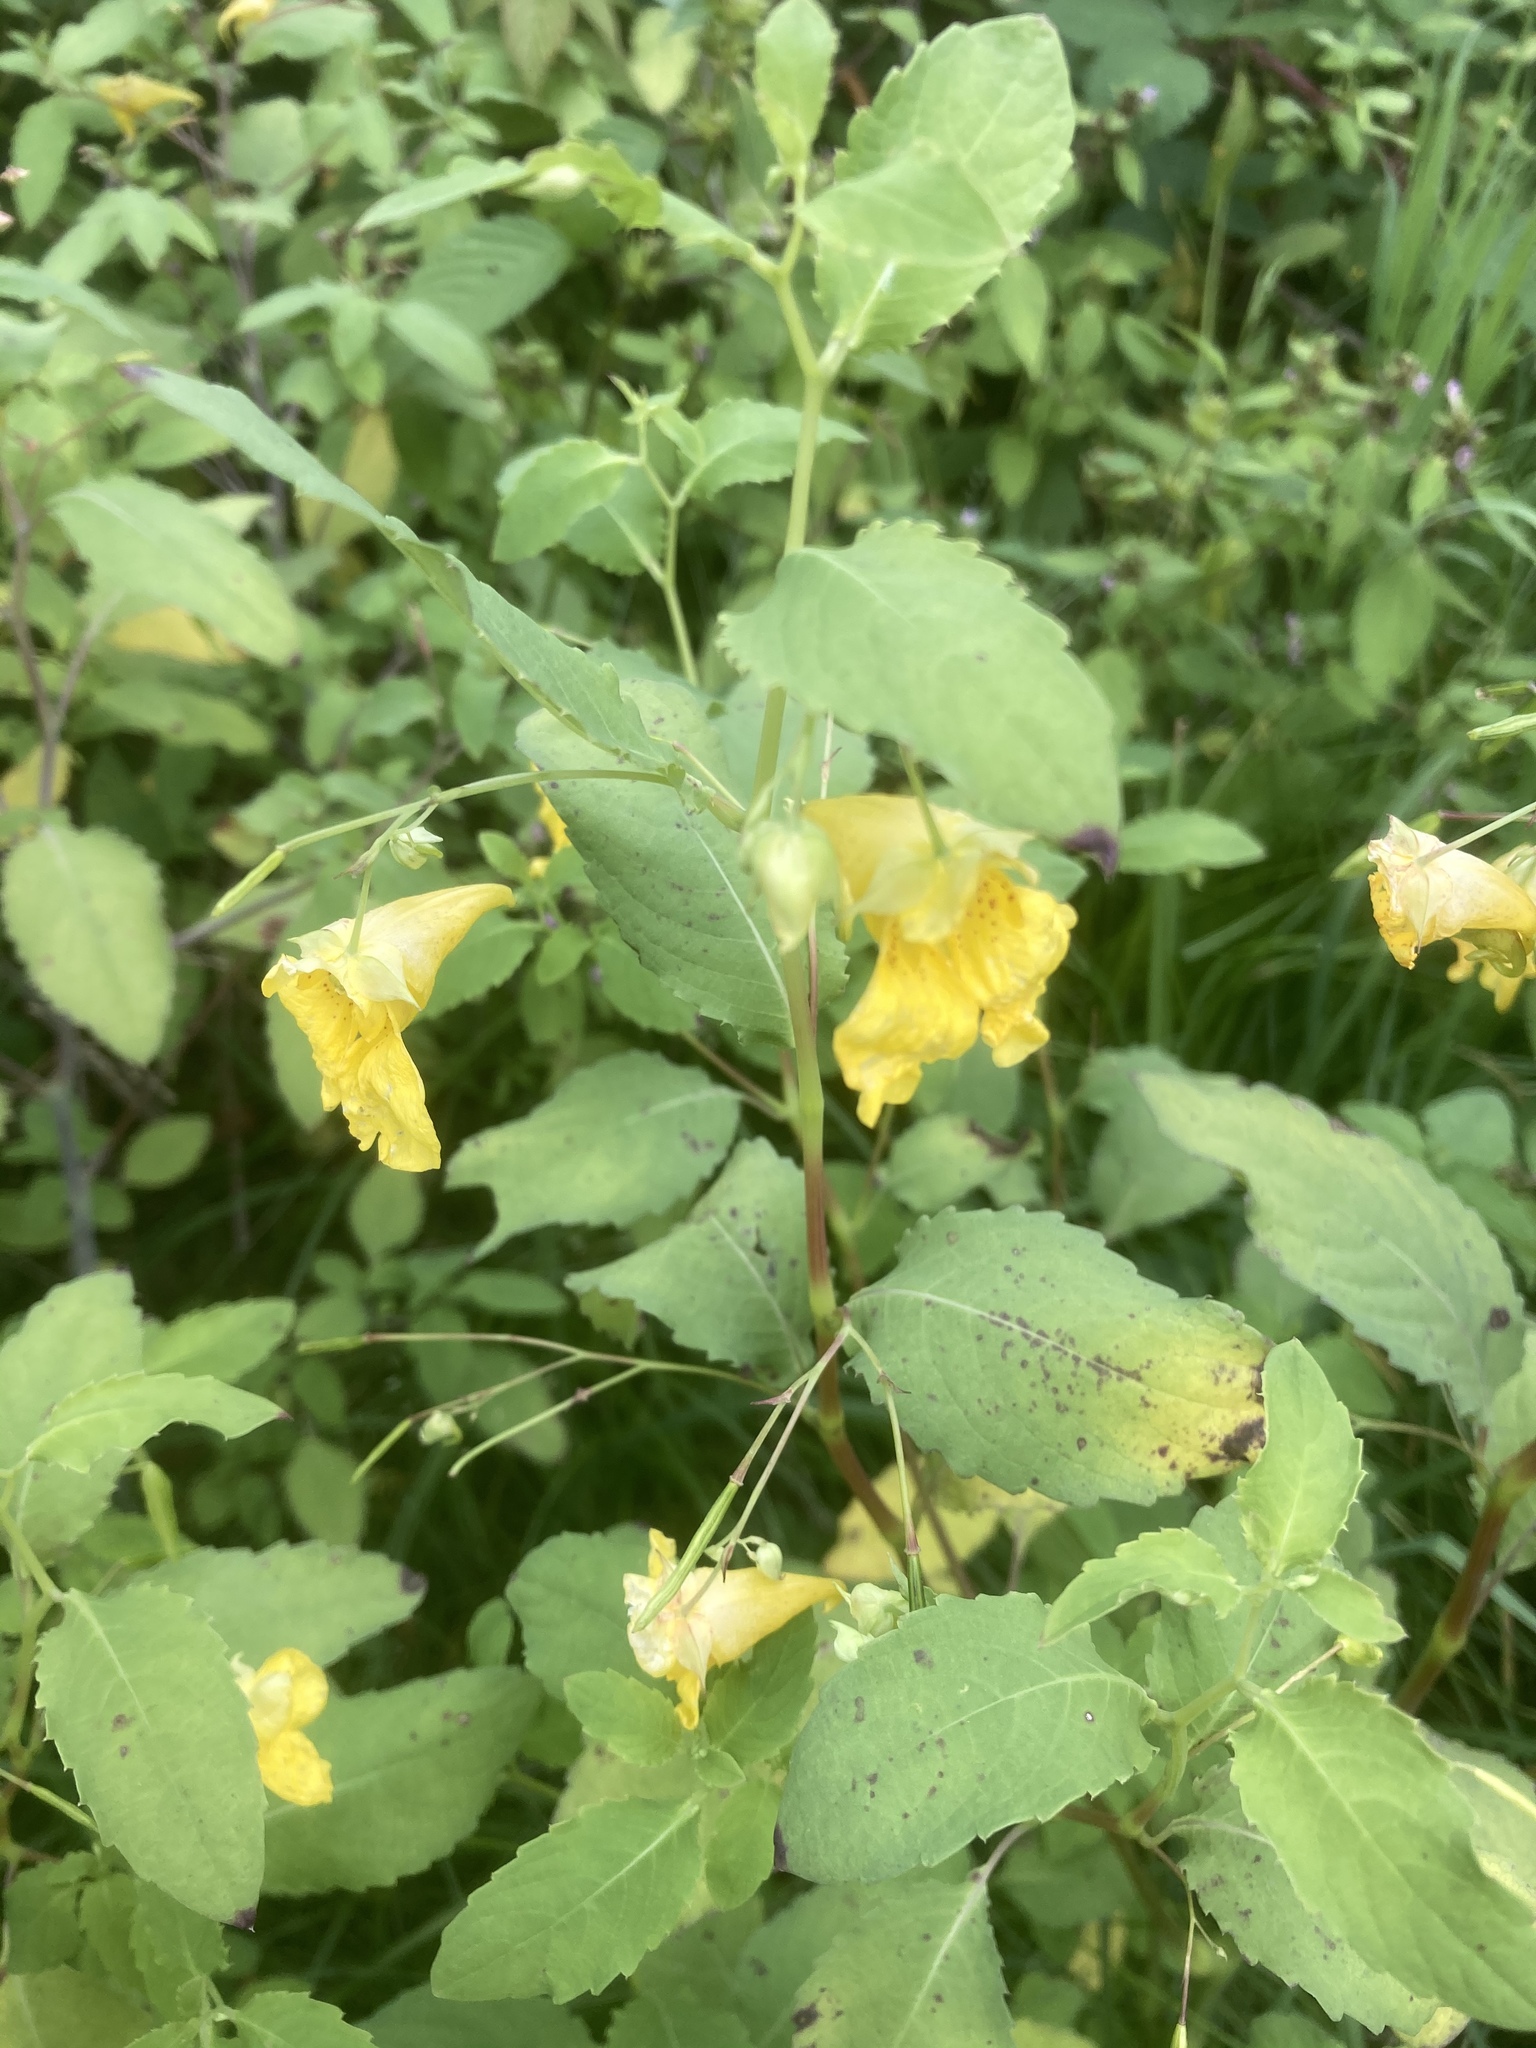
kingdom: Plantae
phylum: Tracheophyta
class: Magnoliopsida
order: Ericales
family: Balsaminaceae
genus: Impatiens
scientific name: Impatiens noli-tangere
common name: Touch-me-not balsam
